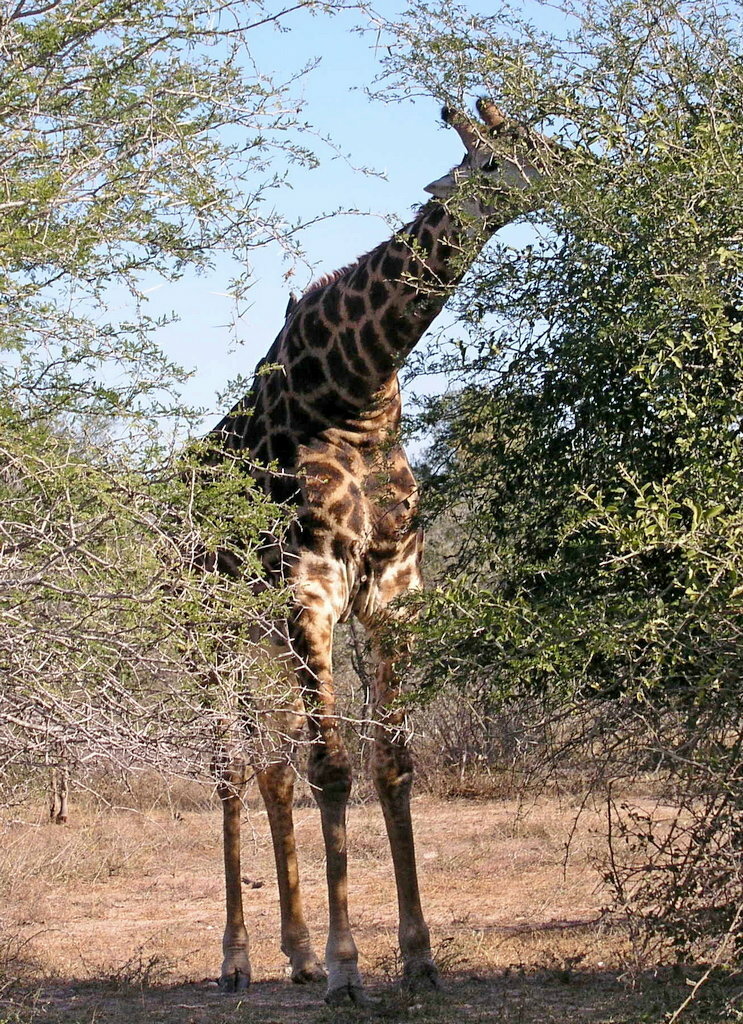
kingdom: Animalia
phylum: Chordata
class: Mammalia
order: Artiodactyla
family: Giraffidae
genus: Giraffa
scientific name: Giraffa giraffa
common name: Southern giraffe
